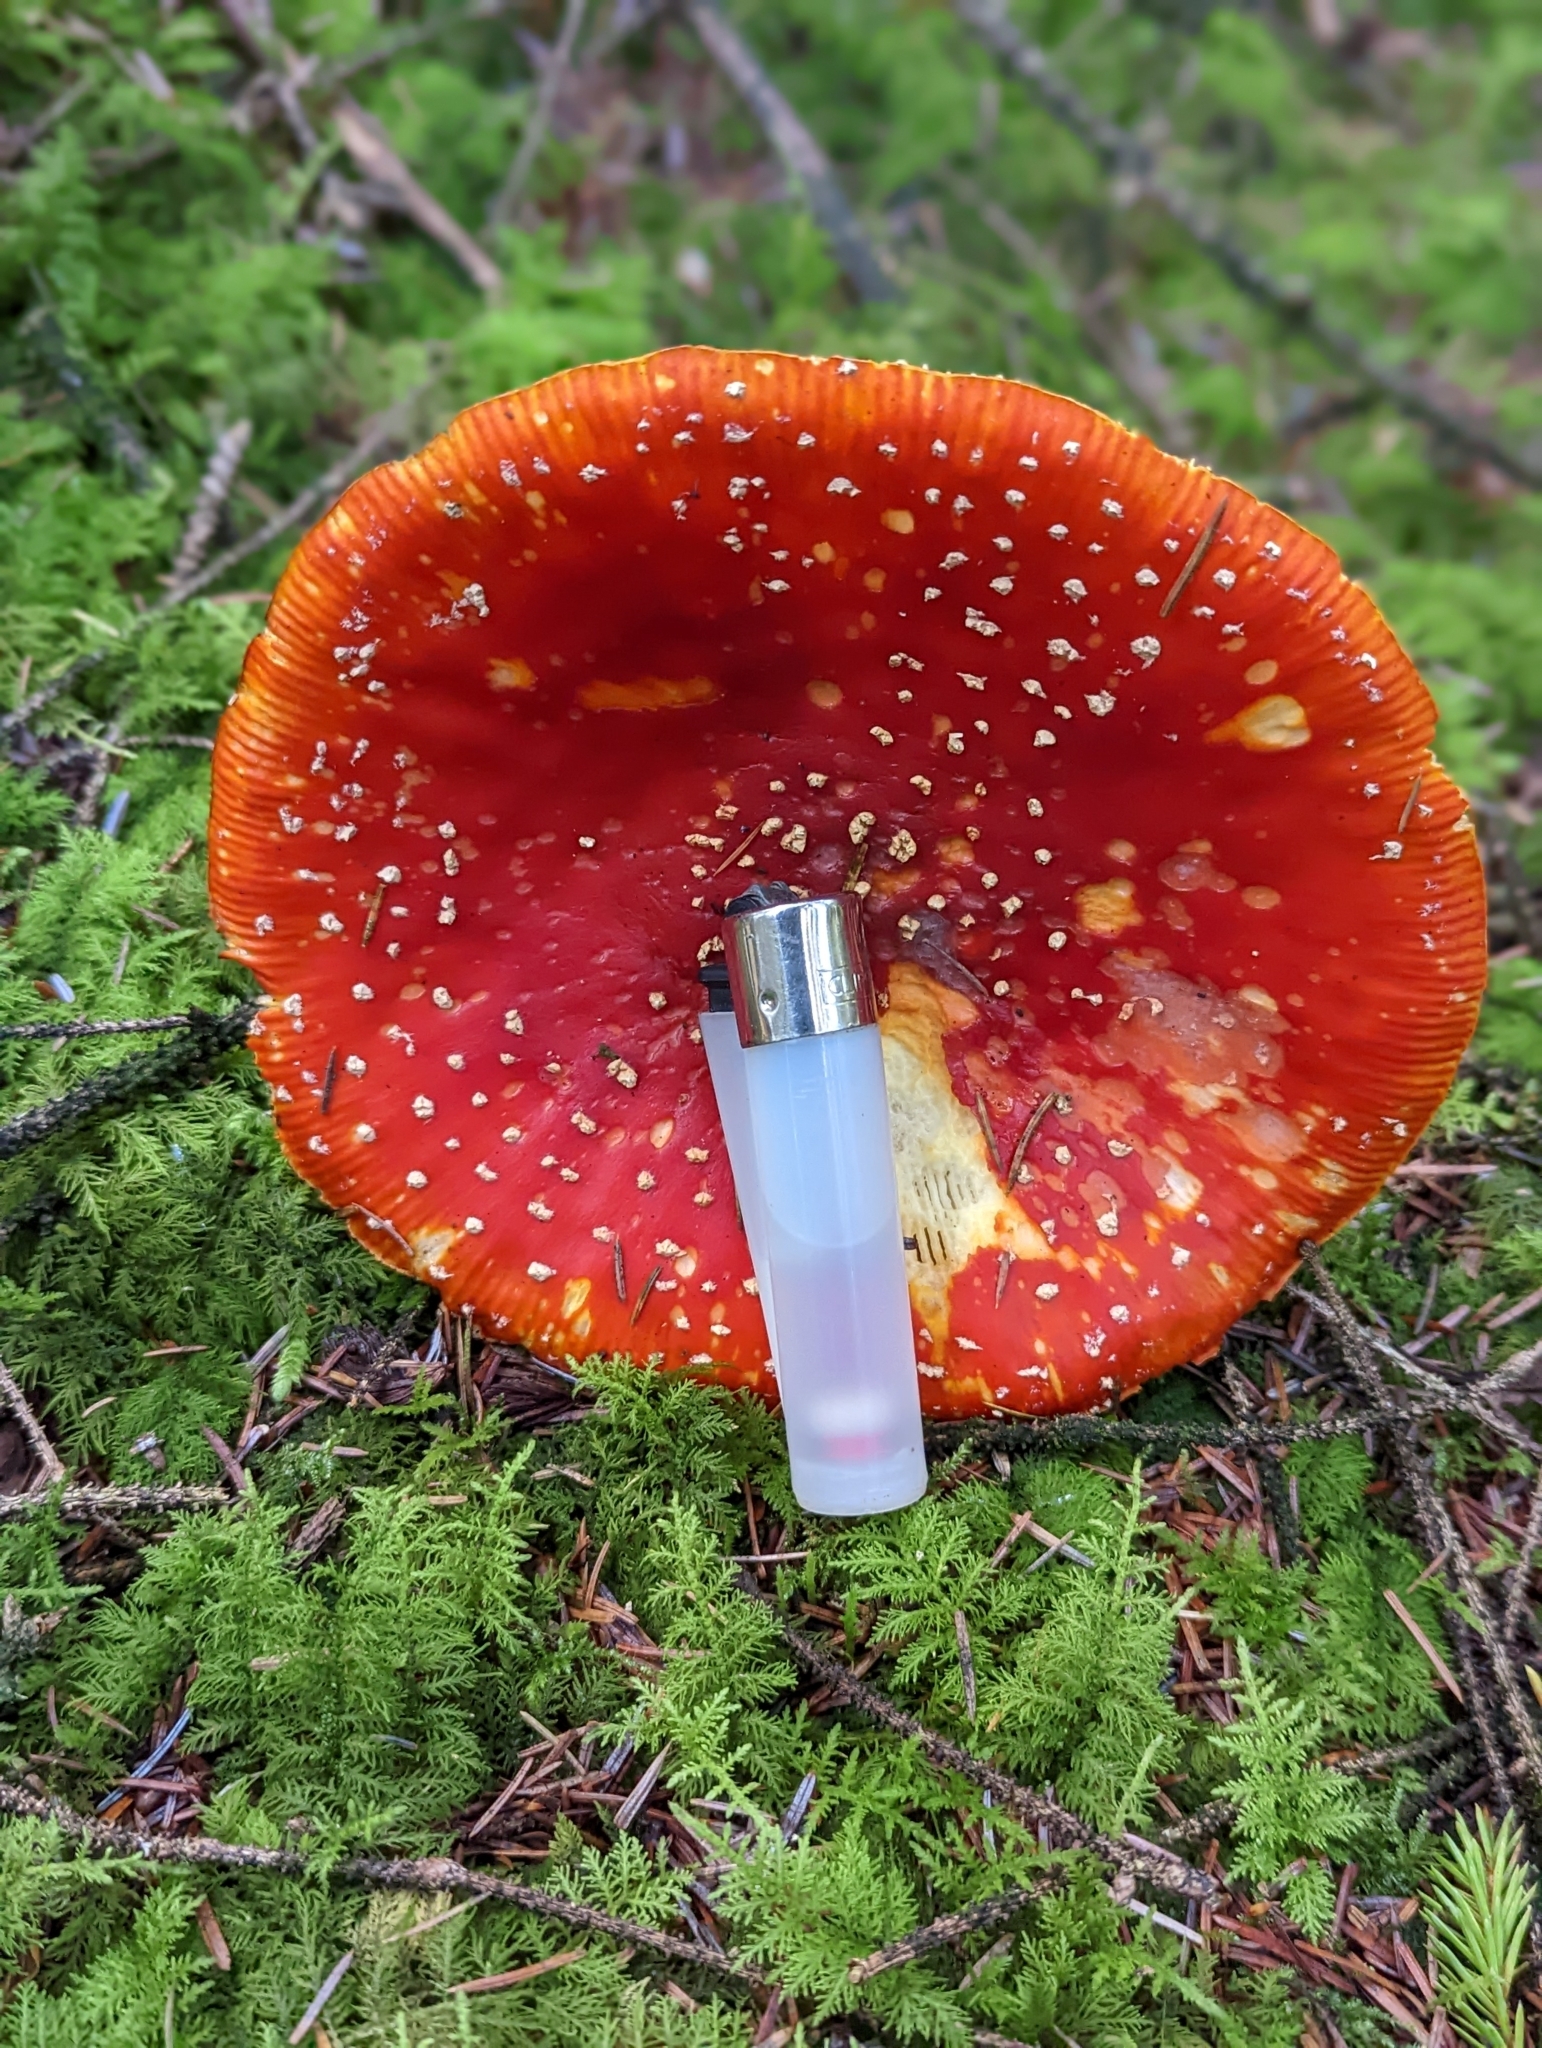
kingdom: Fungi
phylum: Basidiomycota
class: Agaricomycetes
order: Agaricales
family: Amanitaceae
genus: Amanita
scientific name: Amanita muscaria
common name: Fly agaric
